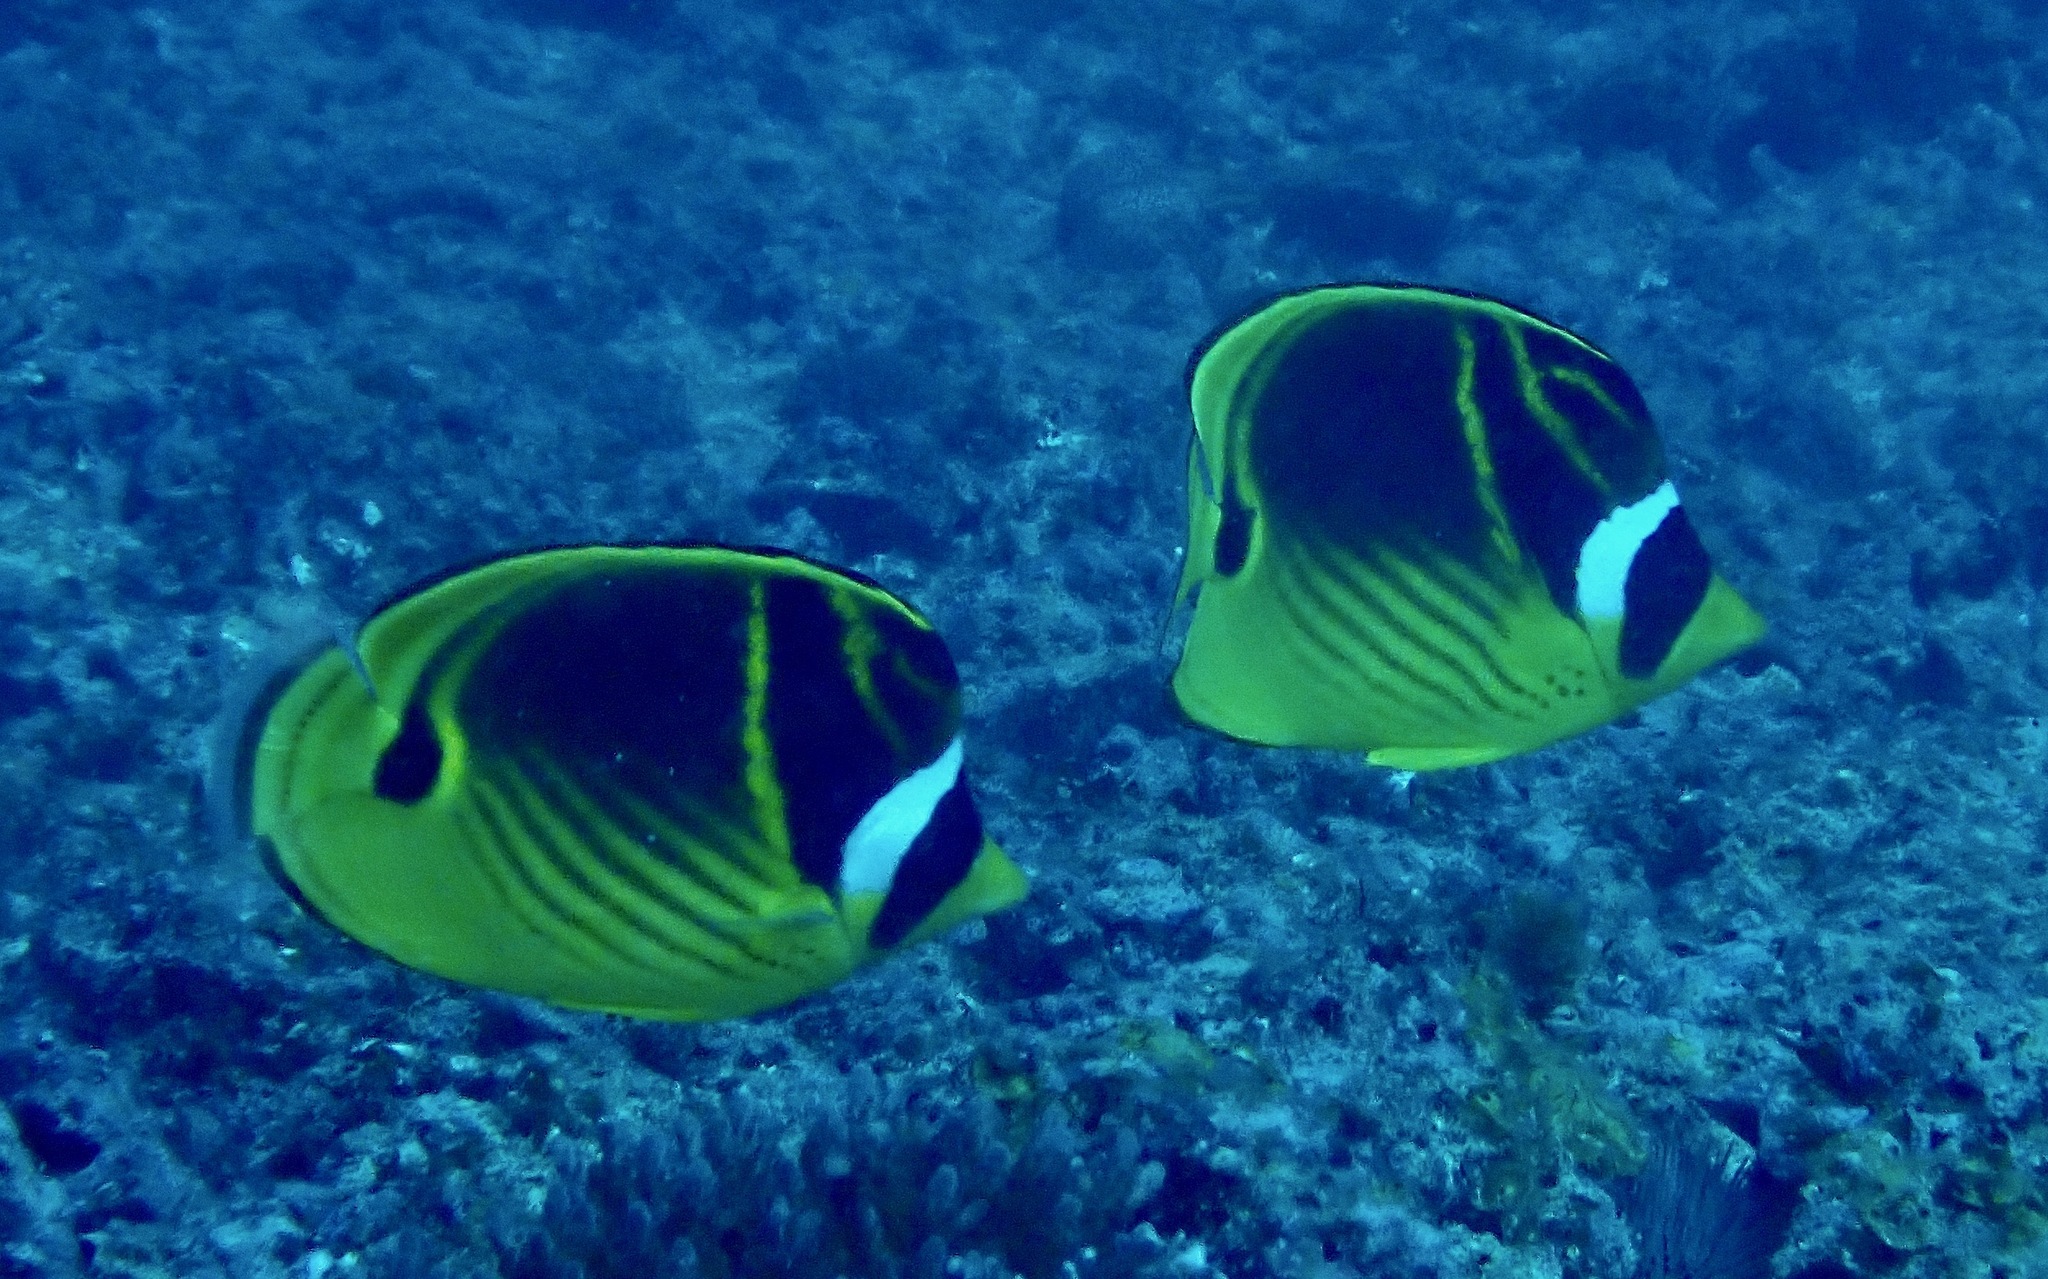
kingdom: Animalia
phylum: Chordata
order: Perciformes
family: Chaetodontidae
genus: Chaetodon
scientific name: Chaetodon lunula
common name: Raccoon butterflyfish
